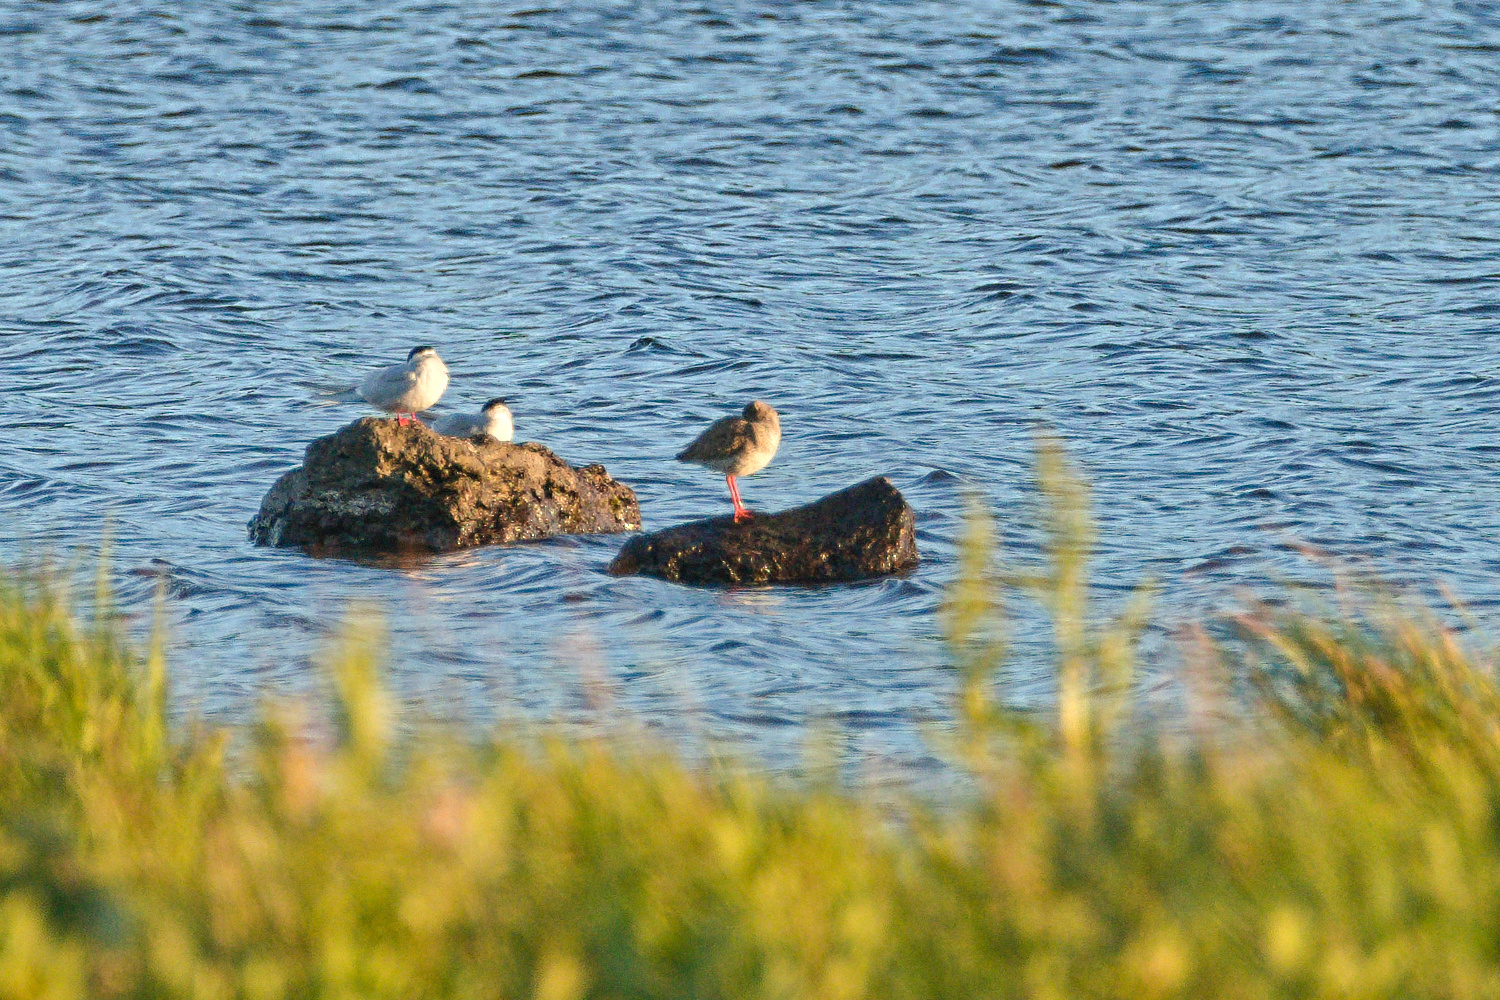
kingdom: Animalia
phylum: Chordata
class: Aves
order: Charadriiformes
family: Scolopacidae
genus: Tringa
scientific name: Tringa totanus
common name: Common redshank
